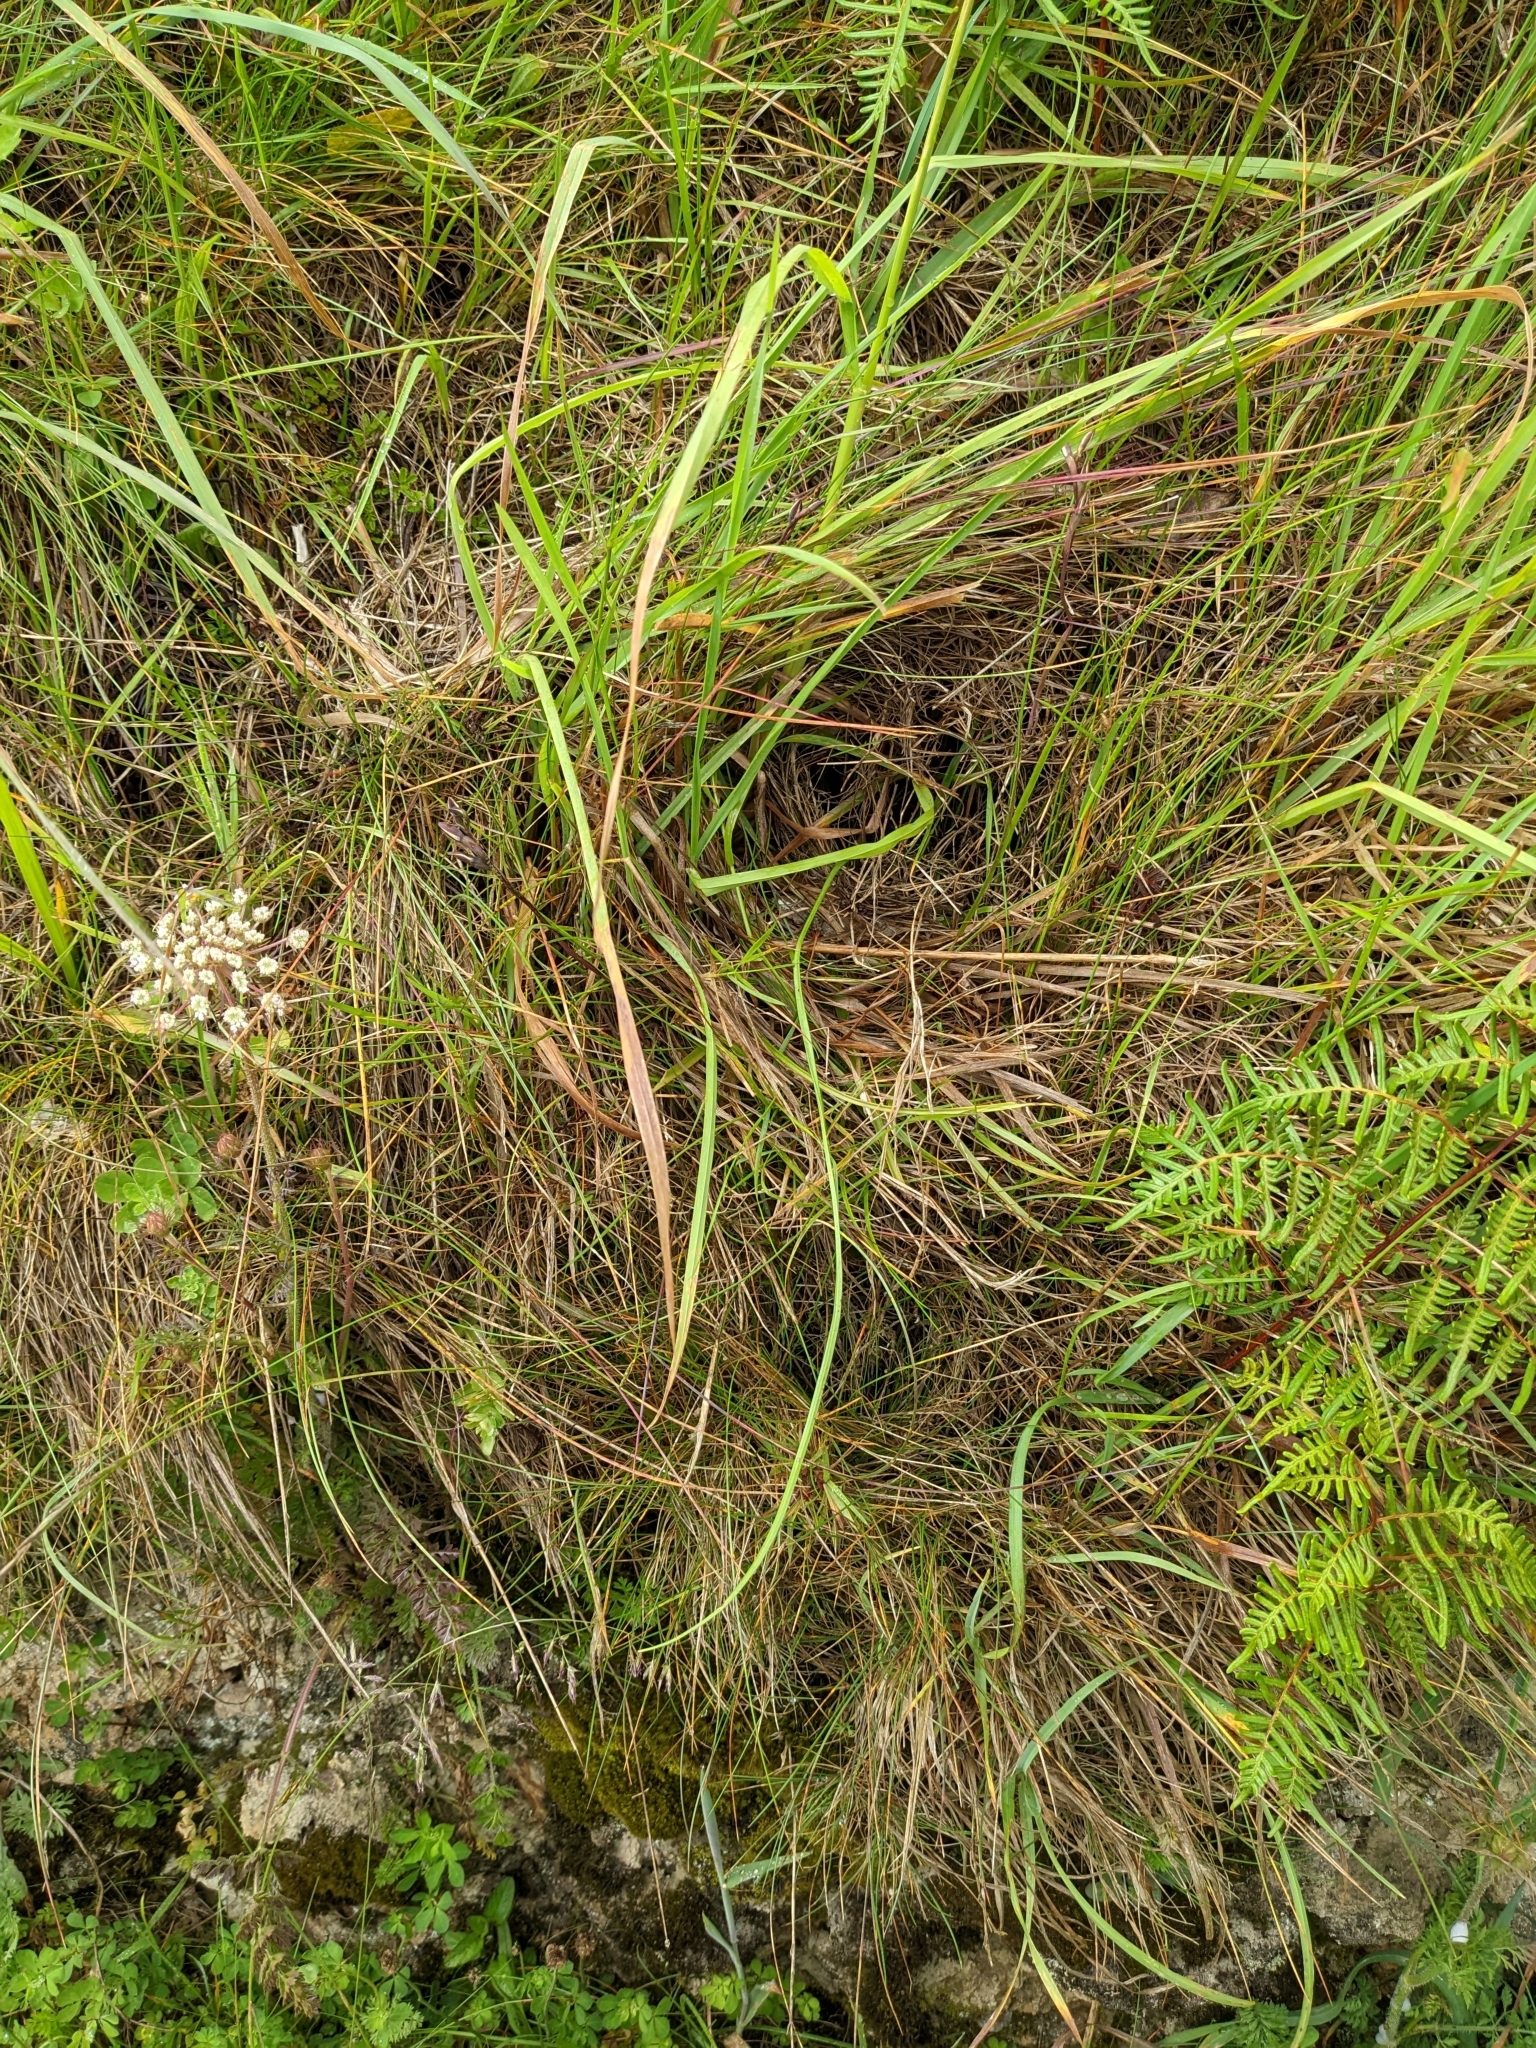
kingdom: Plantae
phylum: Tracheophyta
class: Liliopsida
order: Asparagales
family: Orchidaceae
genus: Thelymitra
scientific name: Thelymitra longifolia
